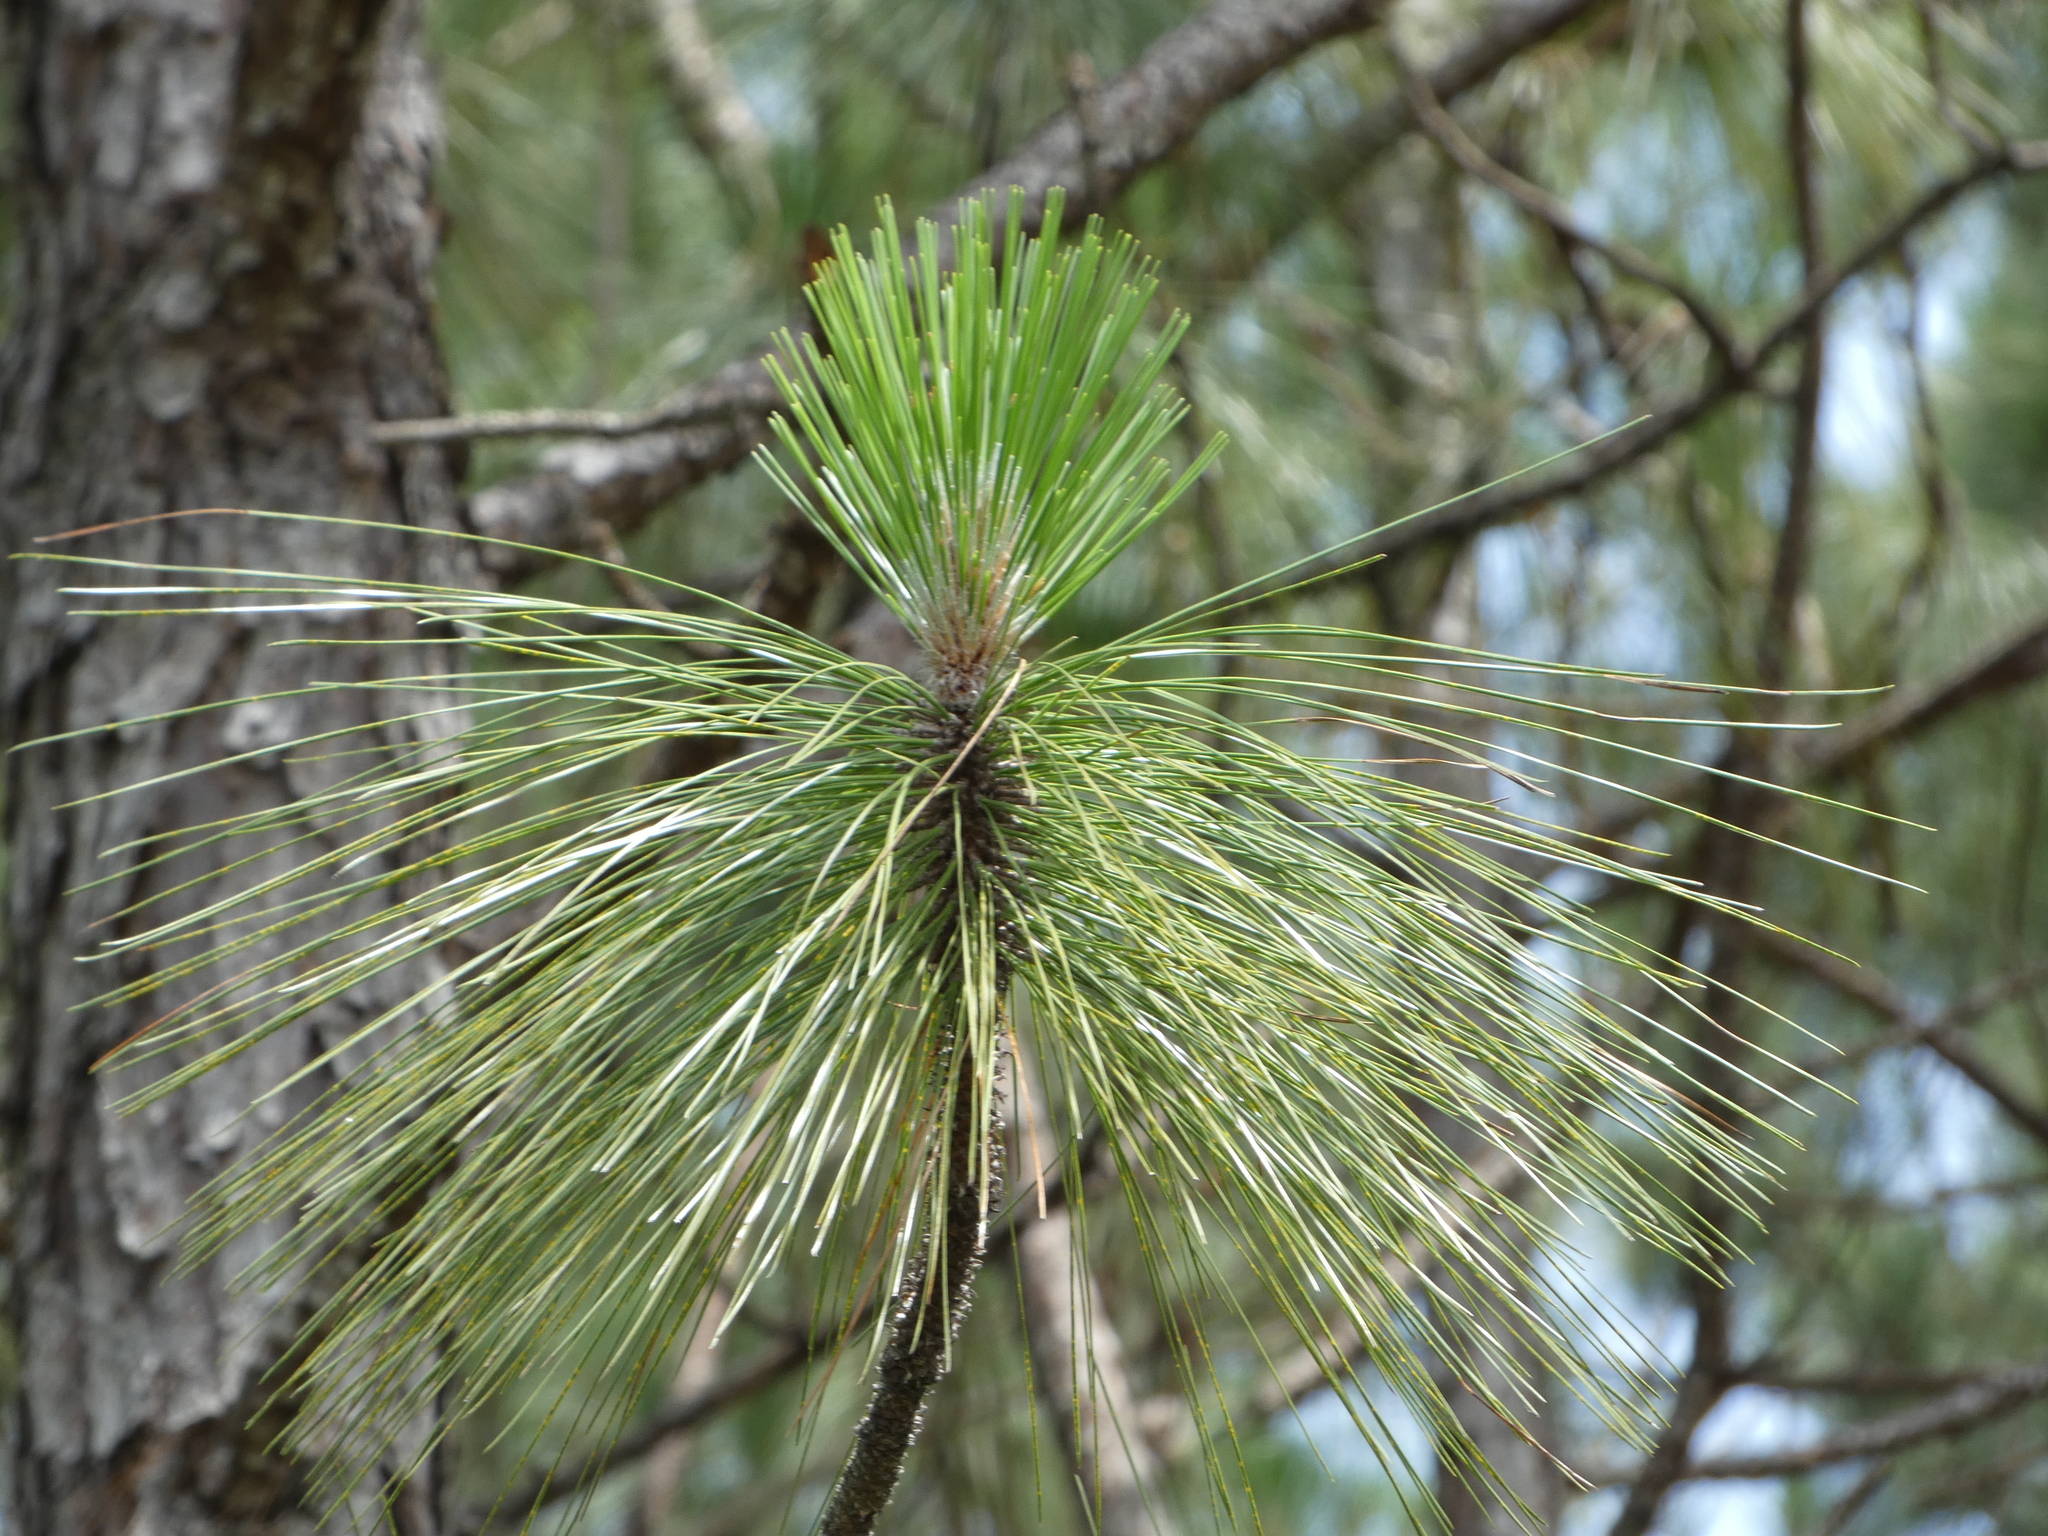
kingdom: Plantae
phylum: Tracheophyta
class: Pinopsida
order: Pinales
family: Pinaceae
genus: Pinus
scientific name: Pinus palustris
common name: Longleaf pine
